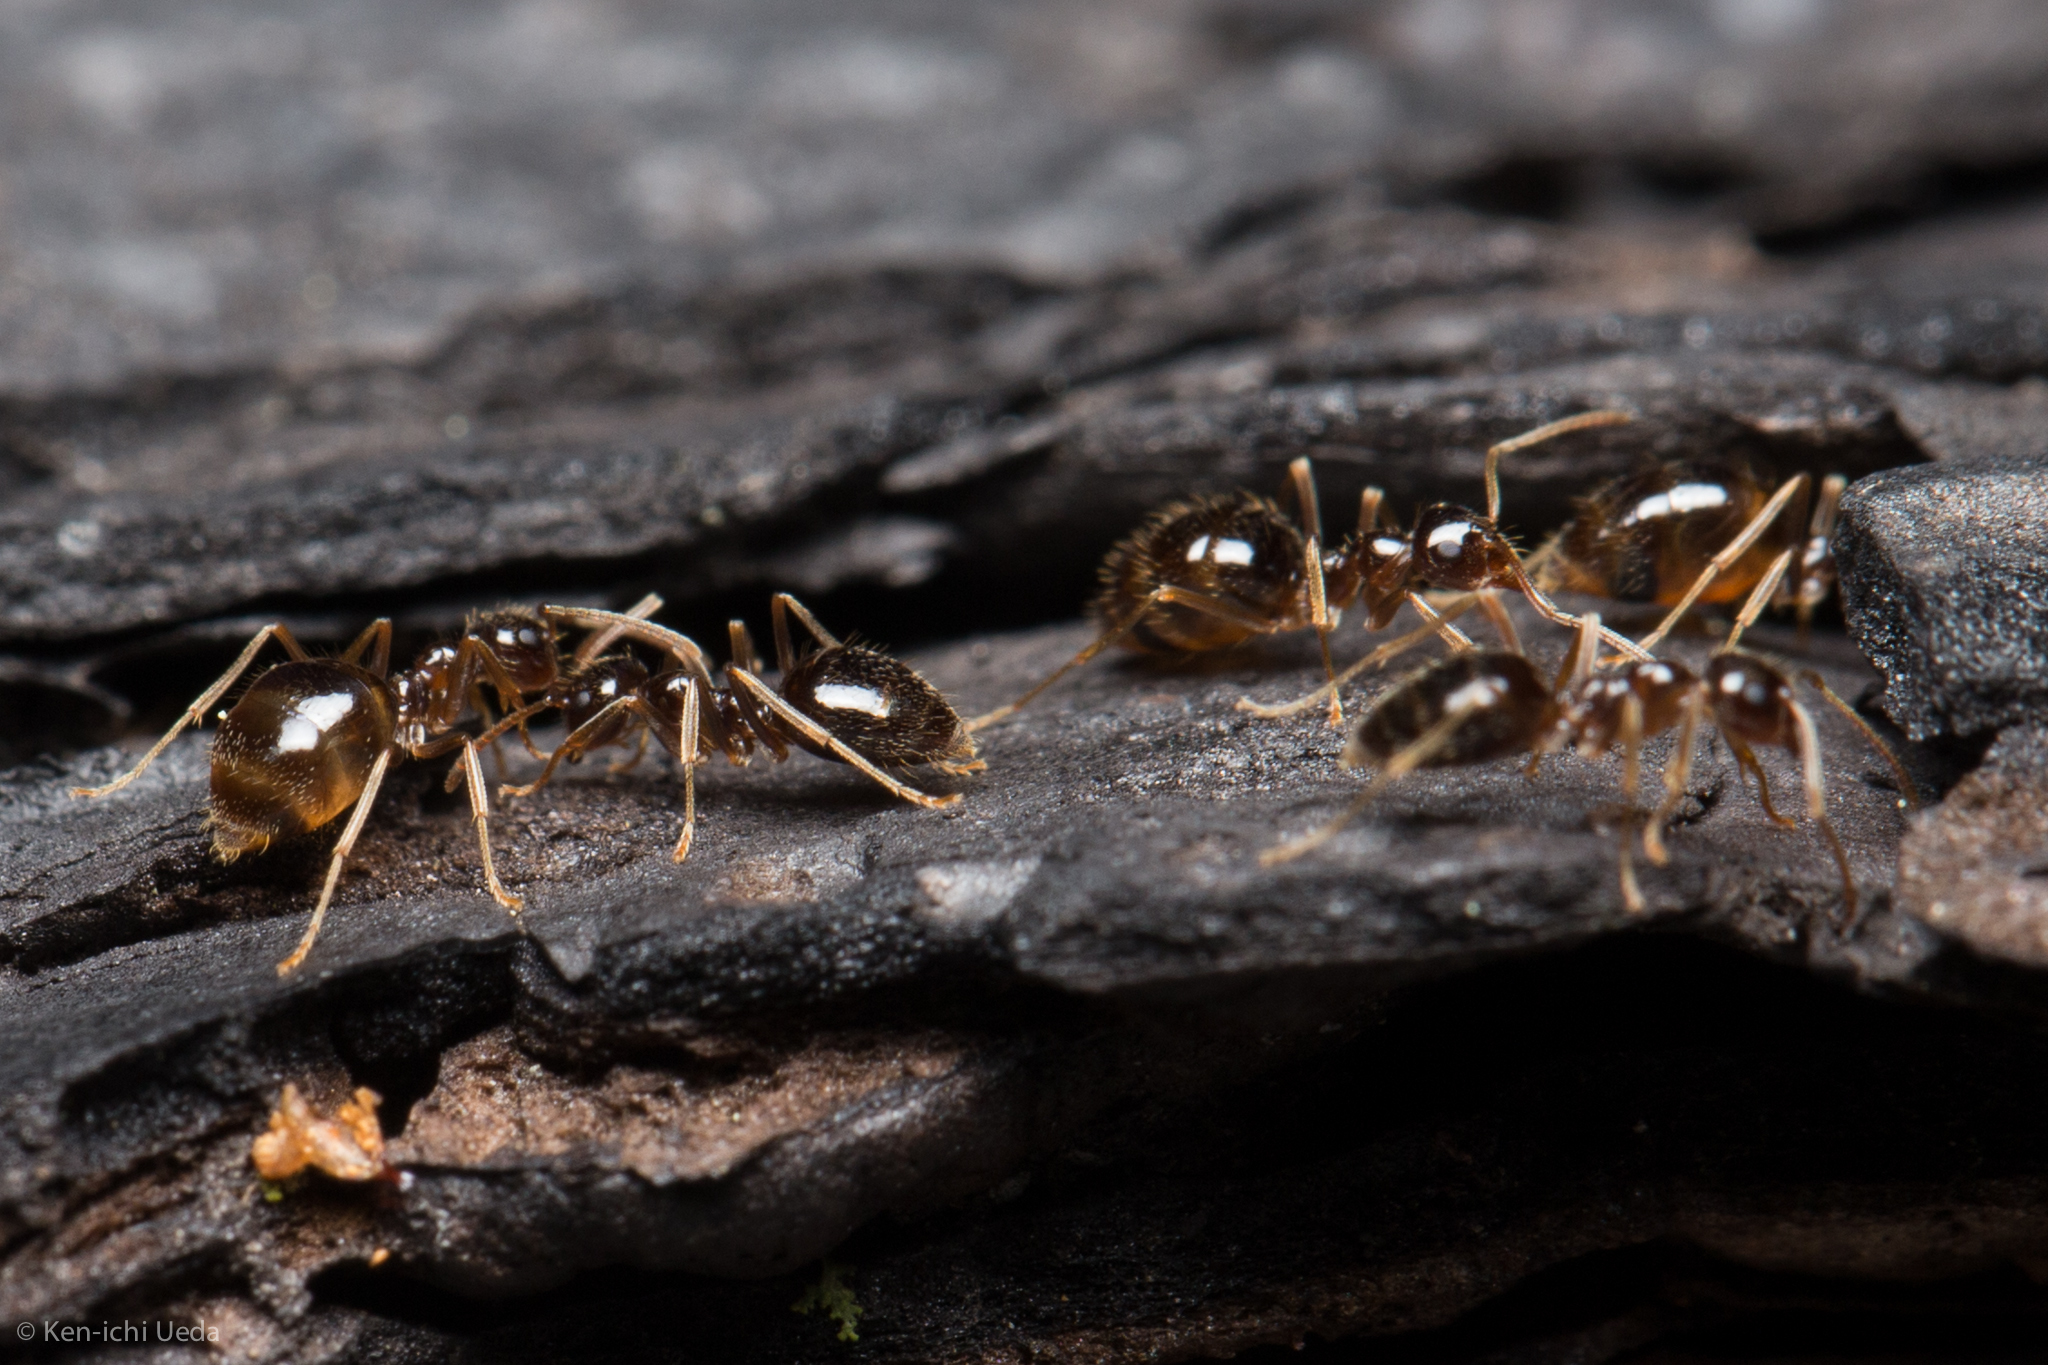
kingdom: Animalia
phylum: Arthropoda
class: Insecta
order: Hymenoptera
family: Formicidae
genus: Prenolepis
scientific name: Prenolepis imparis
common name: Small honey ant
